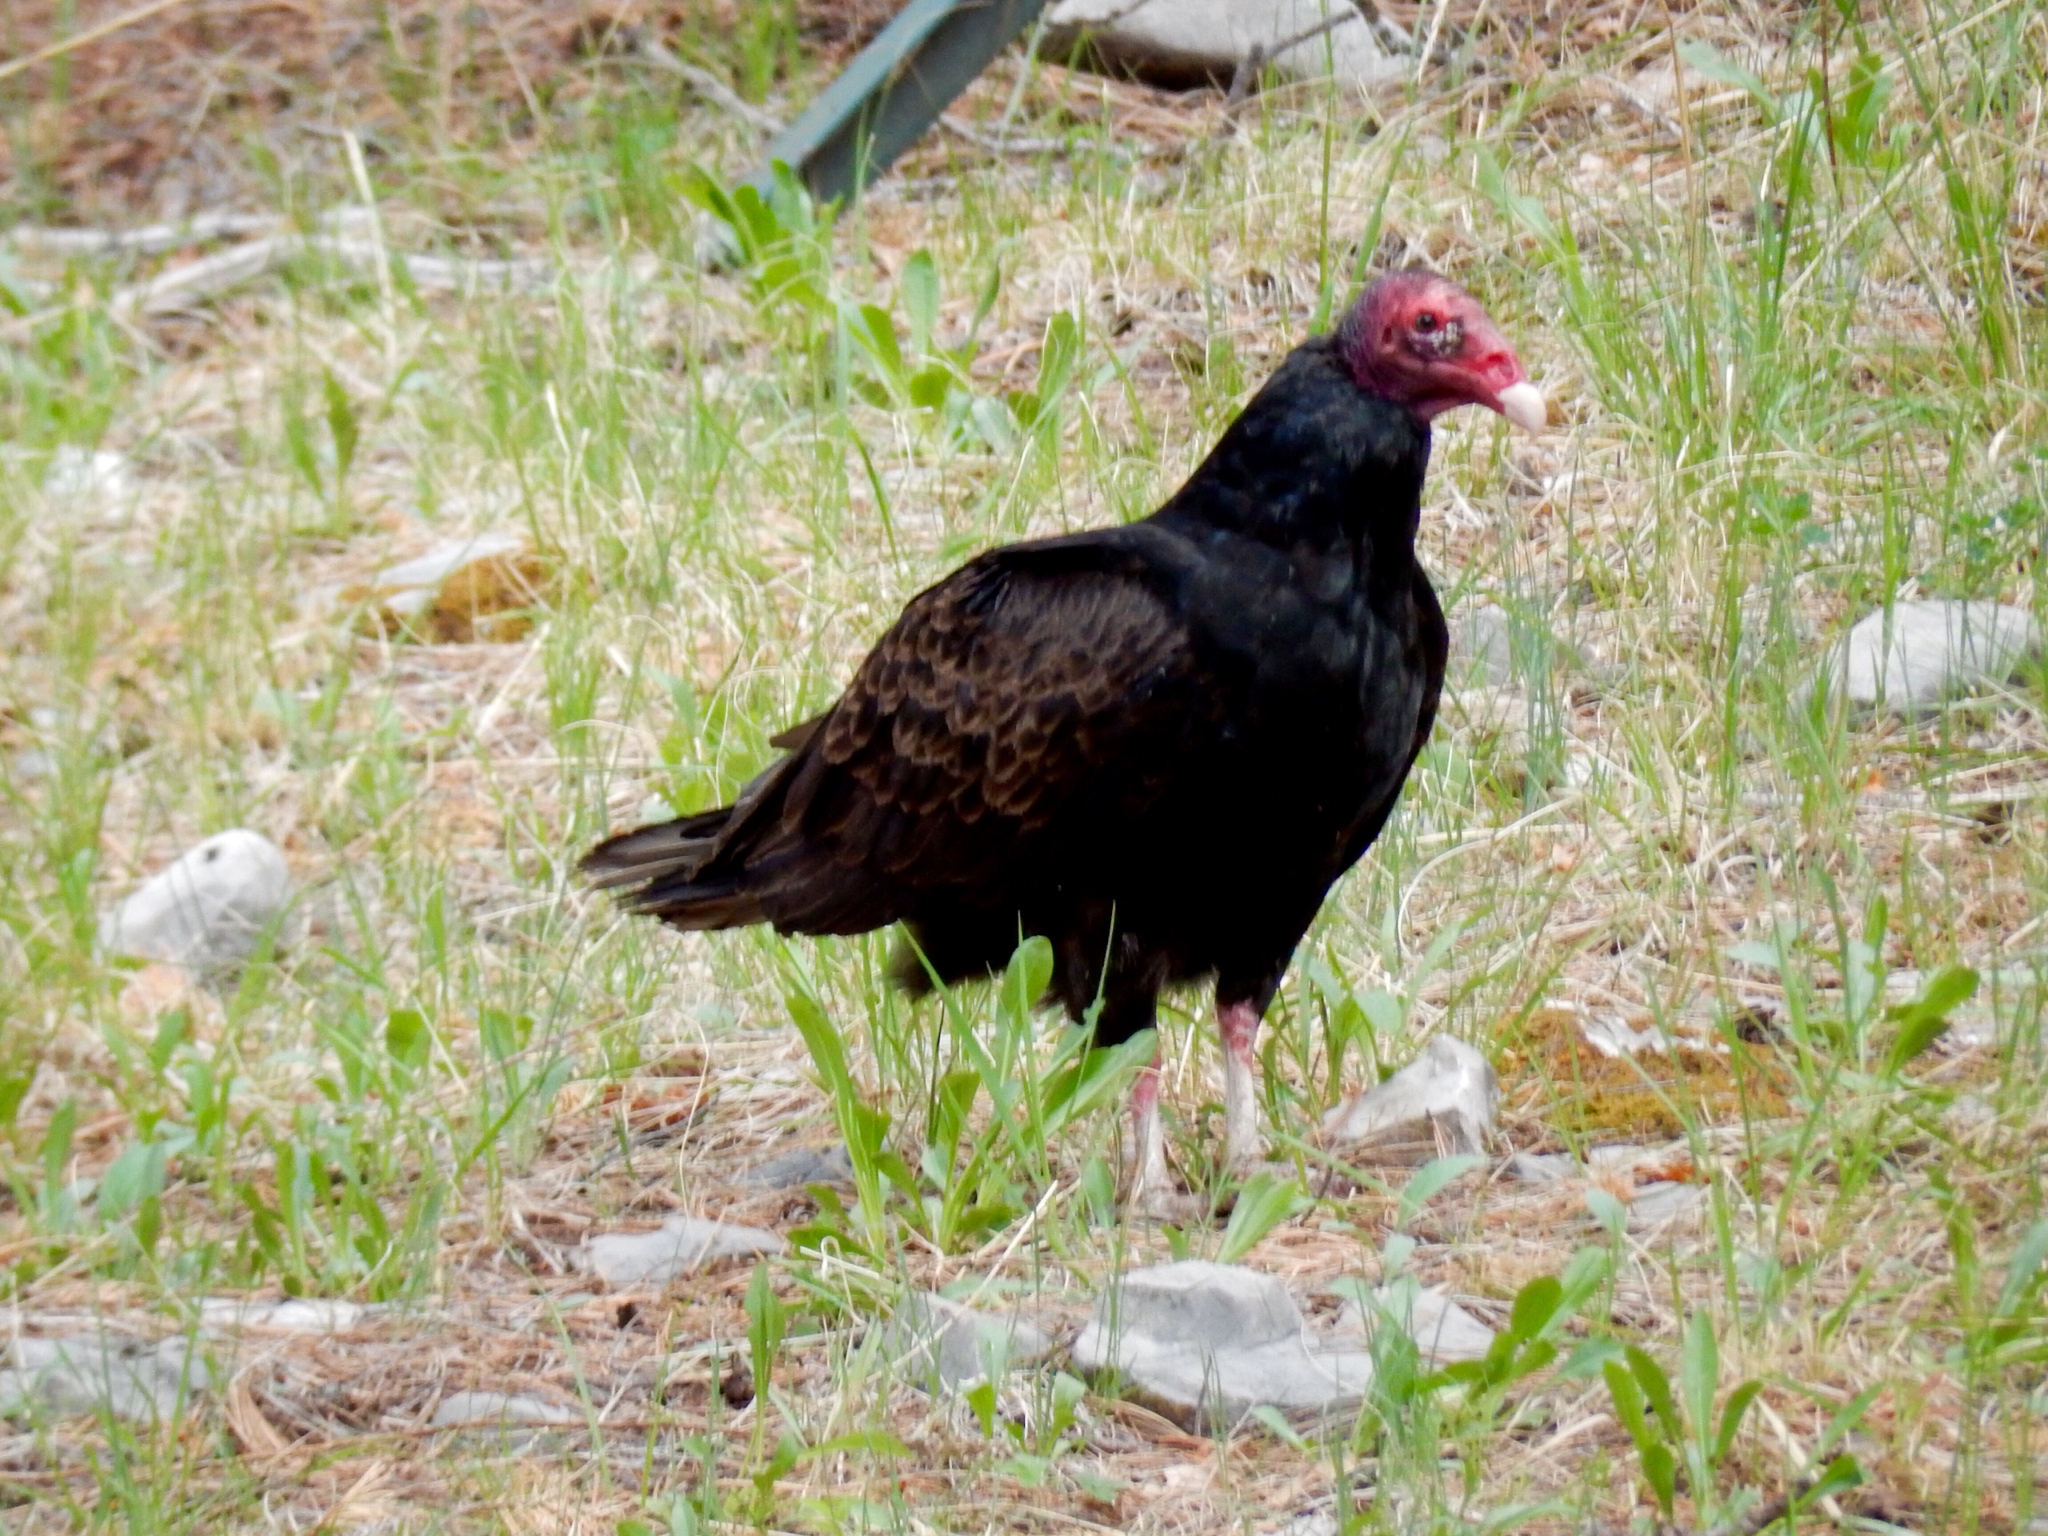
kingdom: Animalia
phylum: Chordata
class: Aves
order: Accipitriformes
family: Cathartidae
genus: Cathartes
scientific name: Cathartes aura
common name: Turkey vulture
